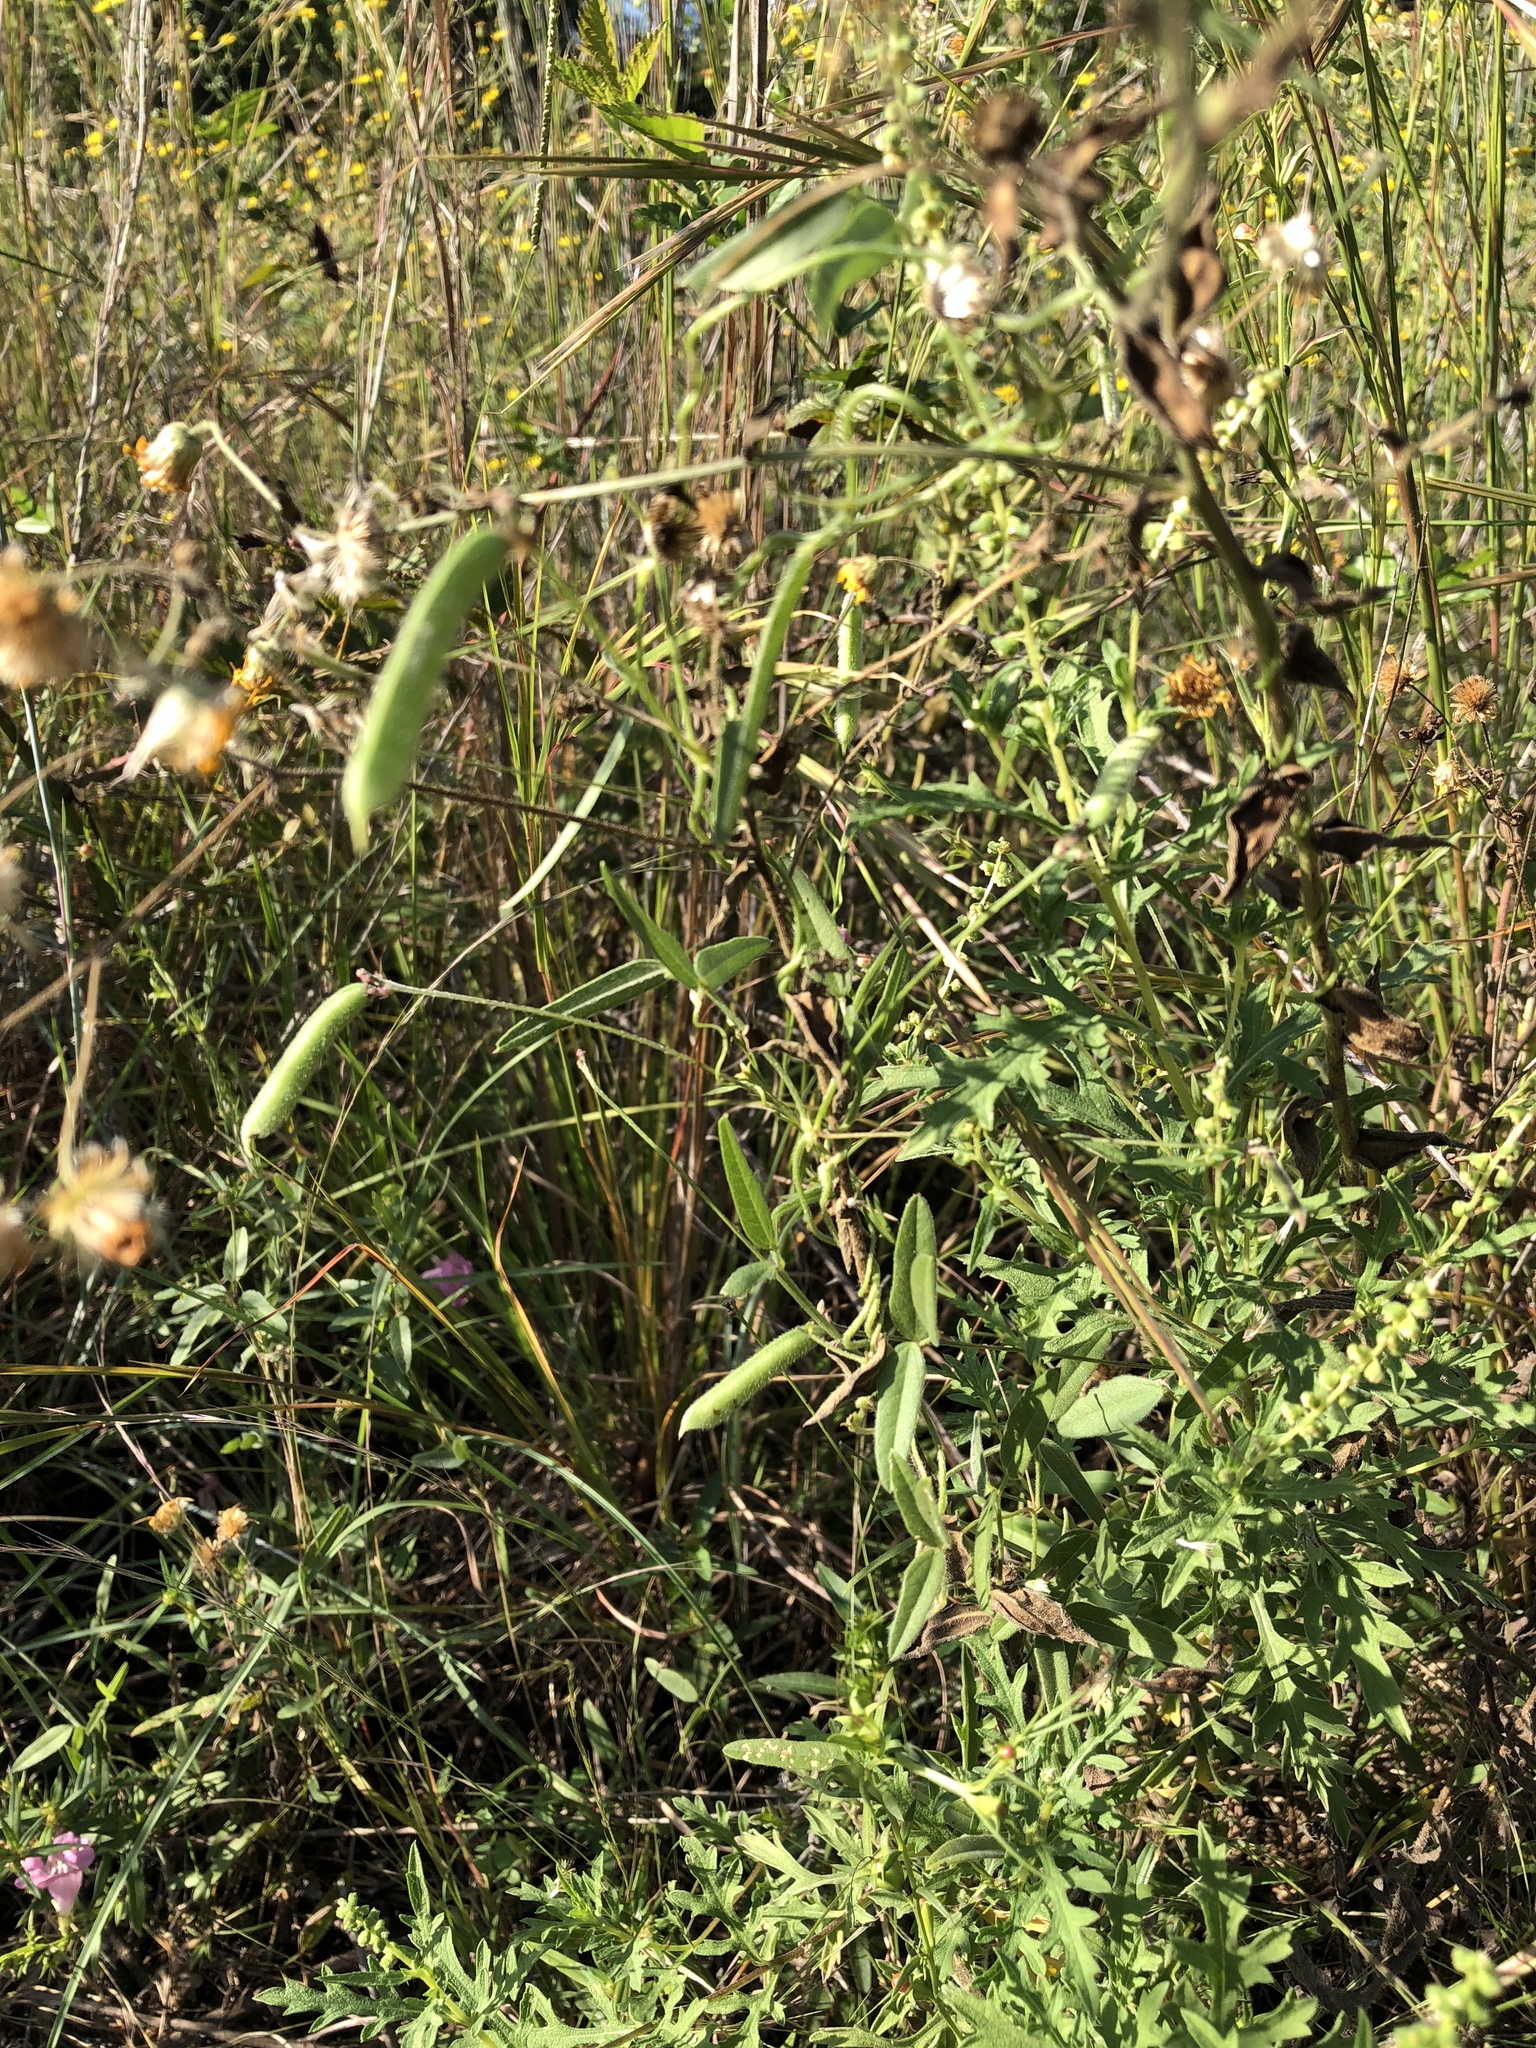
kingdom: Plantae
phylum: Tracheophyta
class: Magnoliopsida
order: Fabales
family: Fabaceae
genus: Strophostyles
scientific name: Strophostyles leiosperma
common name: Smooth-seed wild bean
